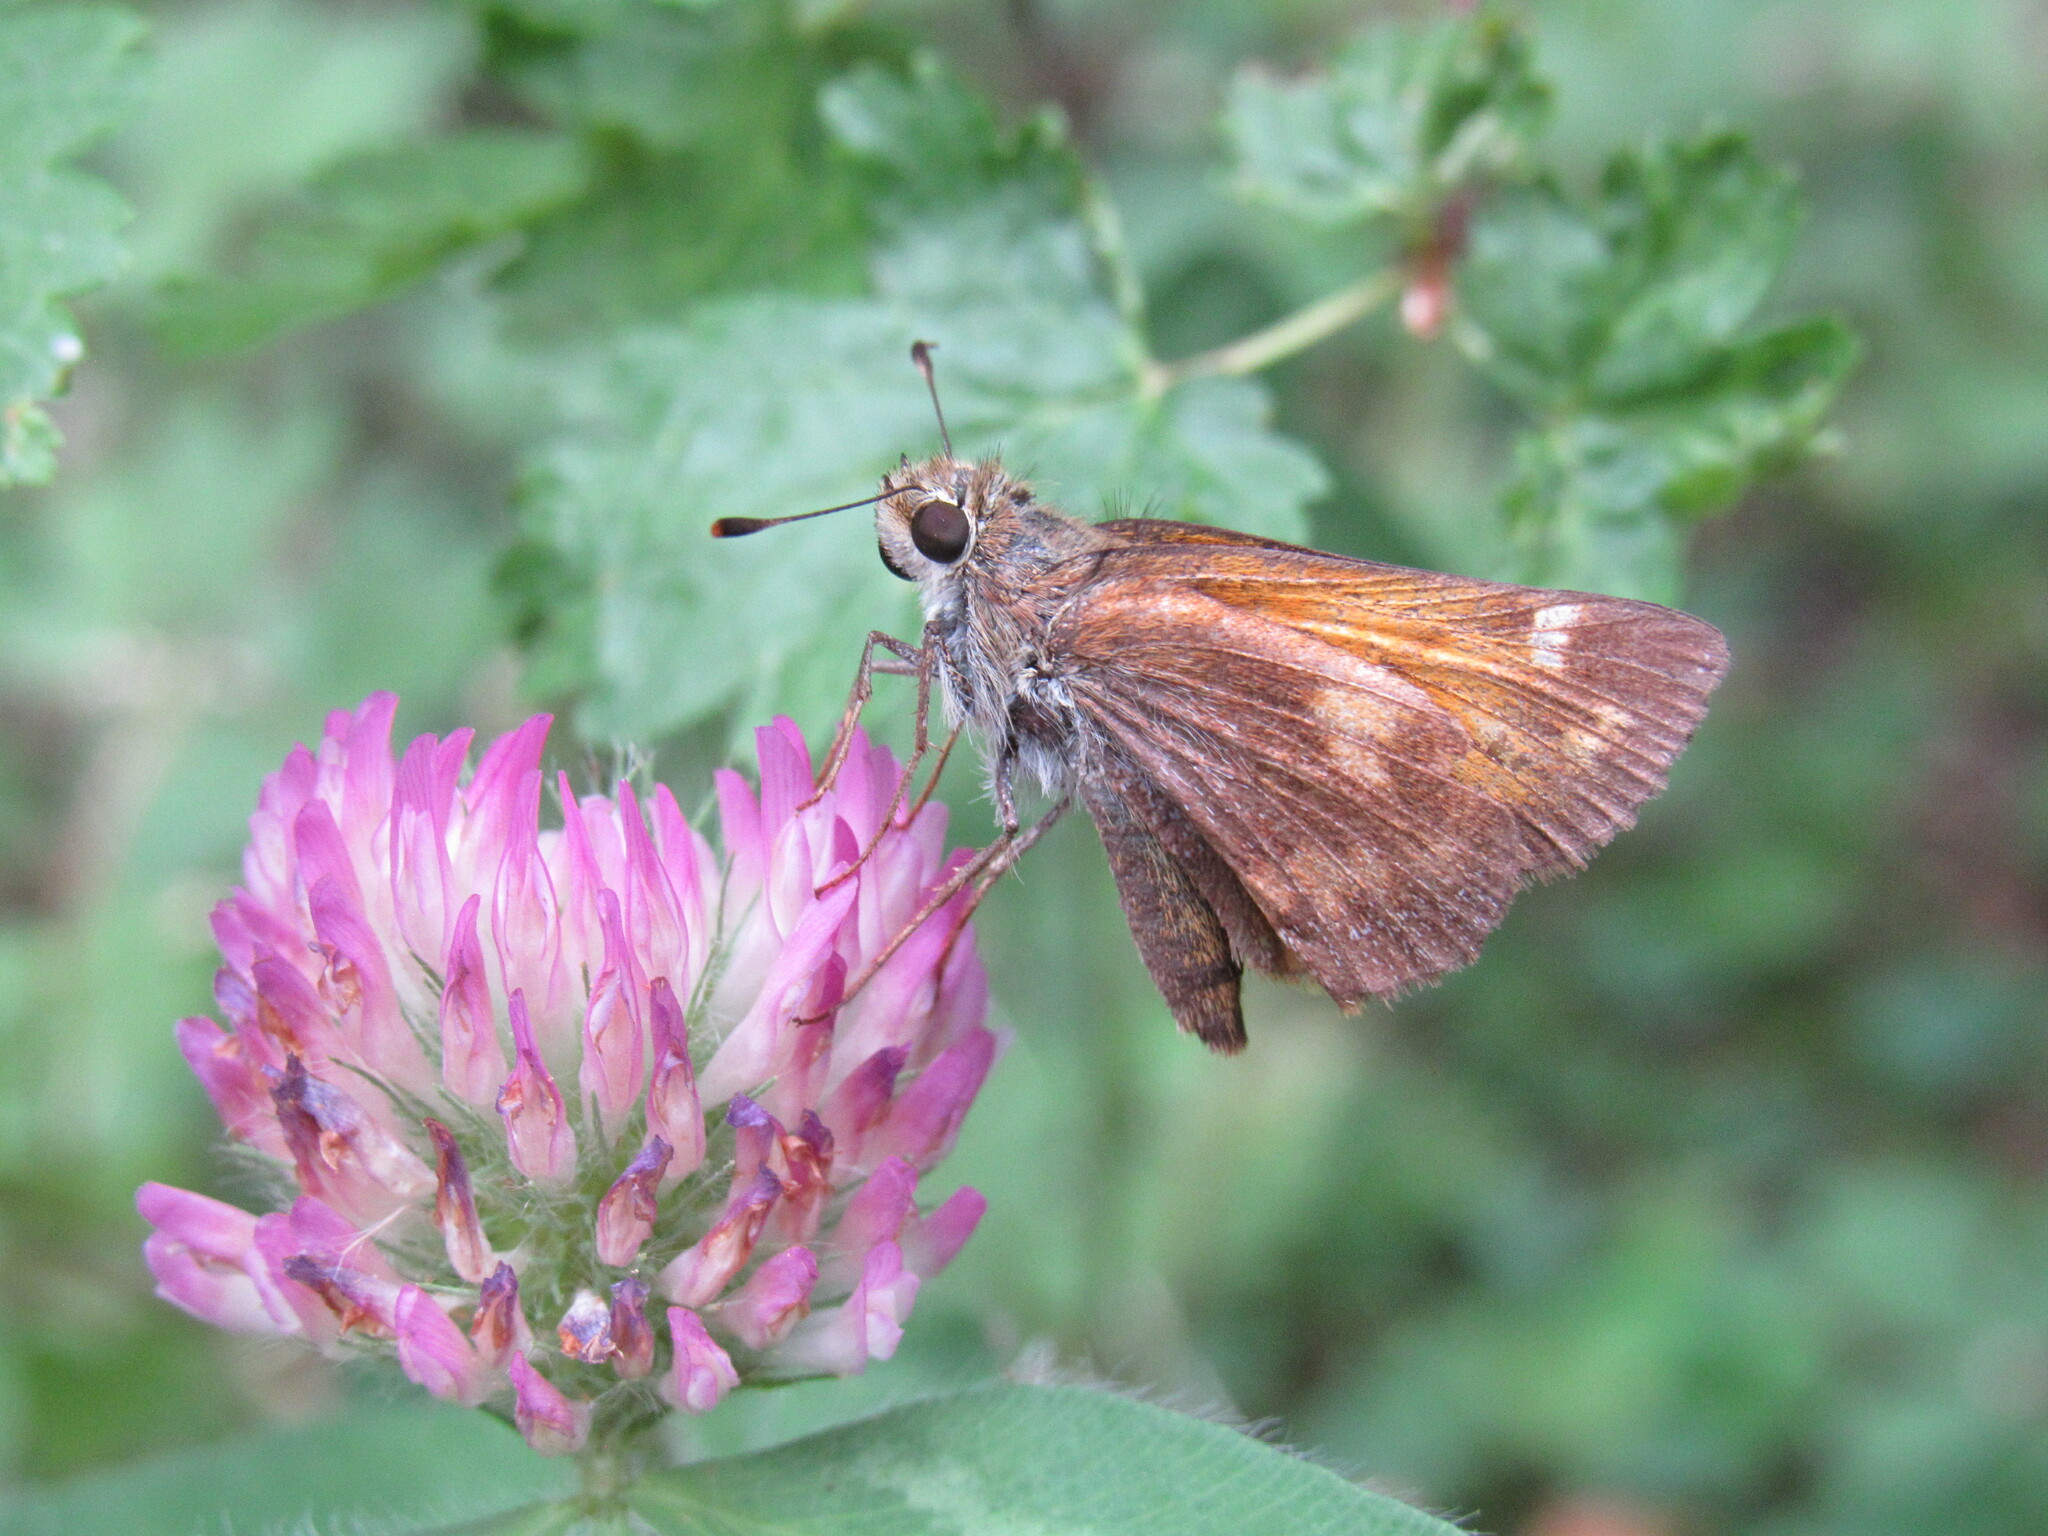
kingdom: Animalia
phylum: Arthropoda
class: Insecta
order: Lepidoptera
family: Hesperiidae
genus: Lon
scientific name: Lon taxiles
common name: Taxiles skipper
